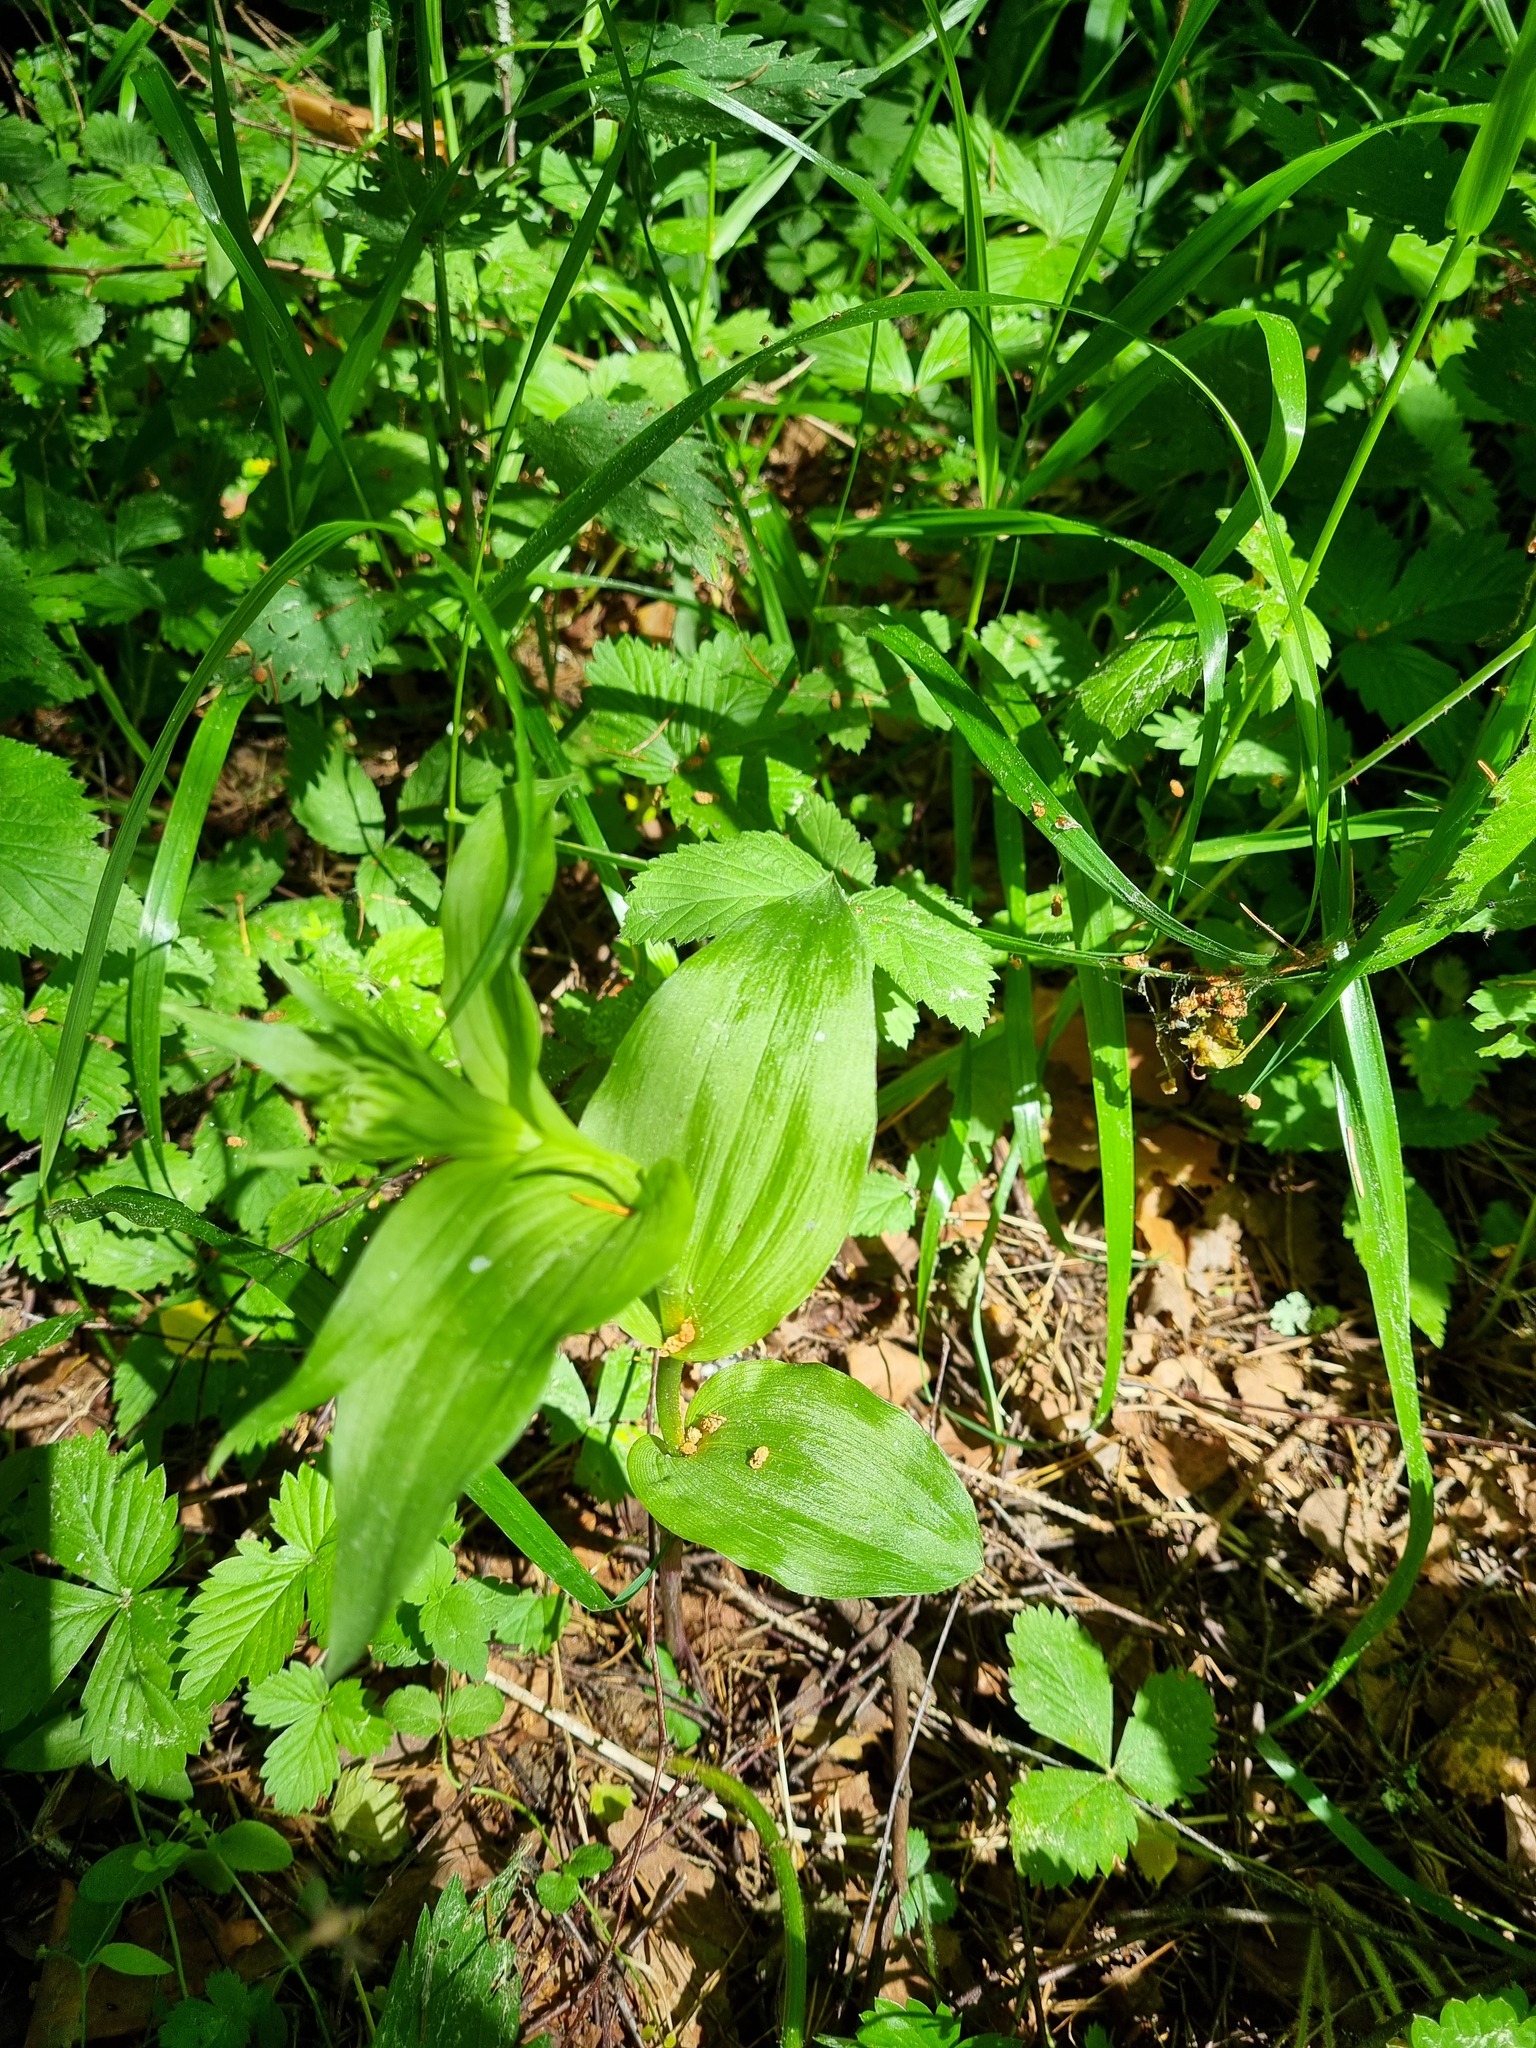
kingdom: Plantae
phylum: Tracheophyta
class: Liliopsida
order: Asparagales
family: Orchidaceae
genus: Epipactis
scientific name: Epipactis helleborine
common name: Broad-leaved helleborine
